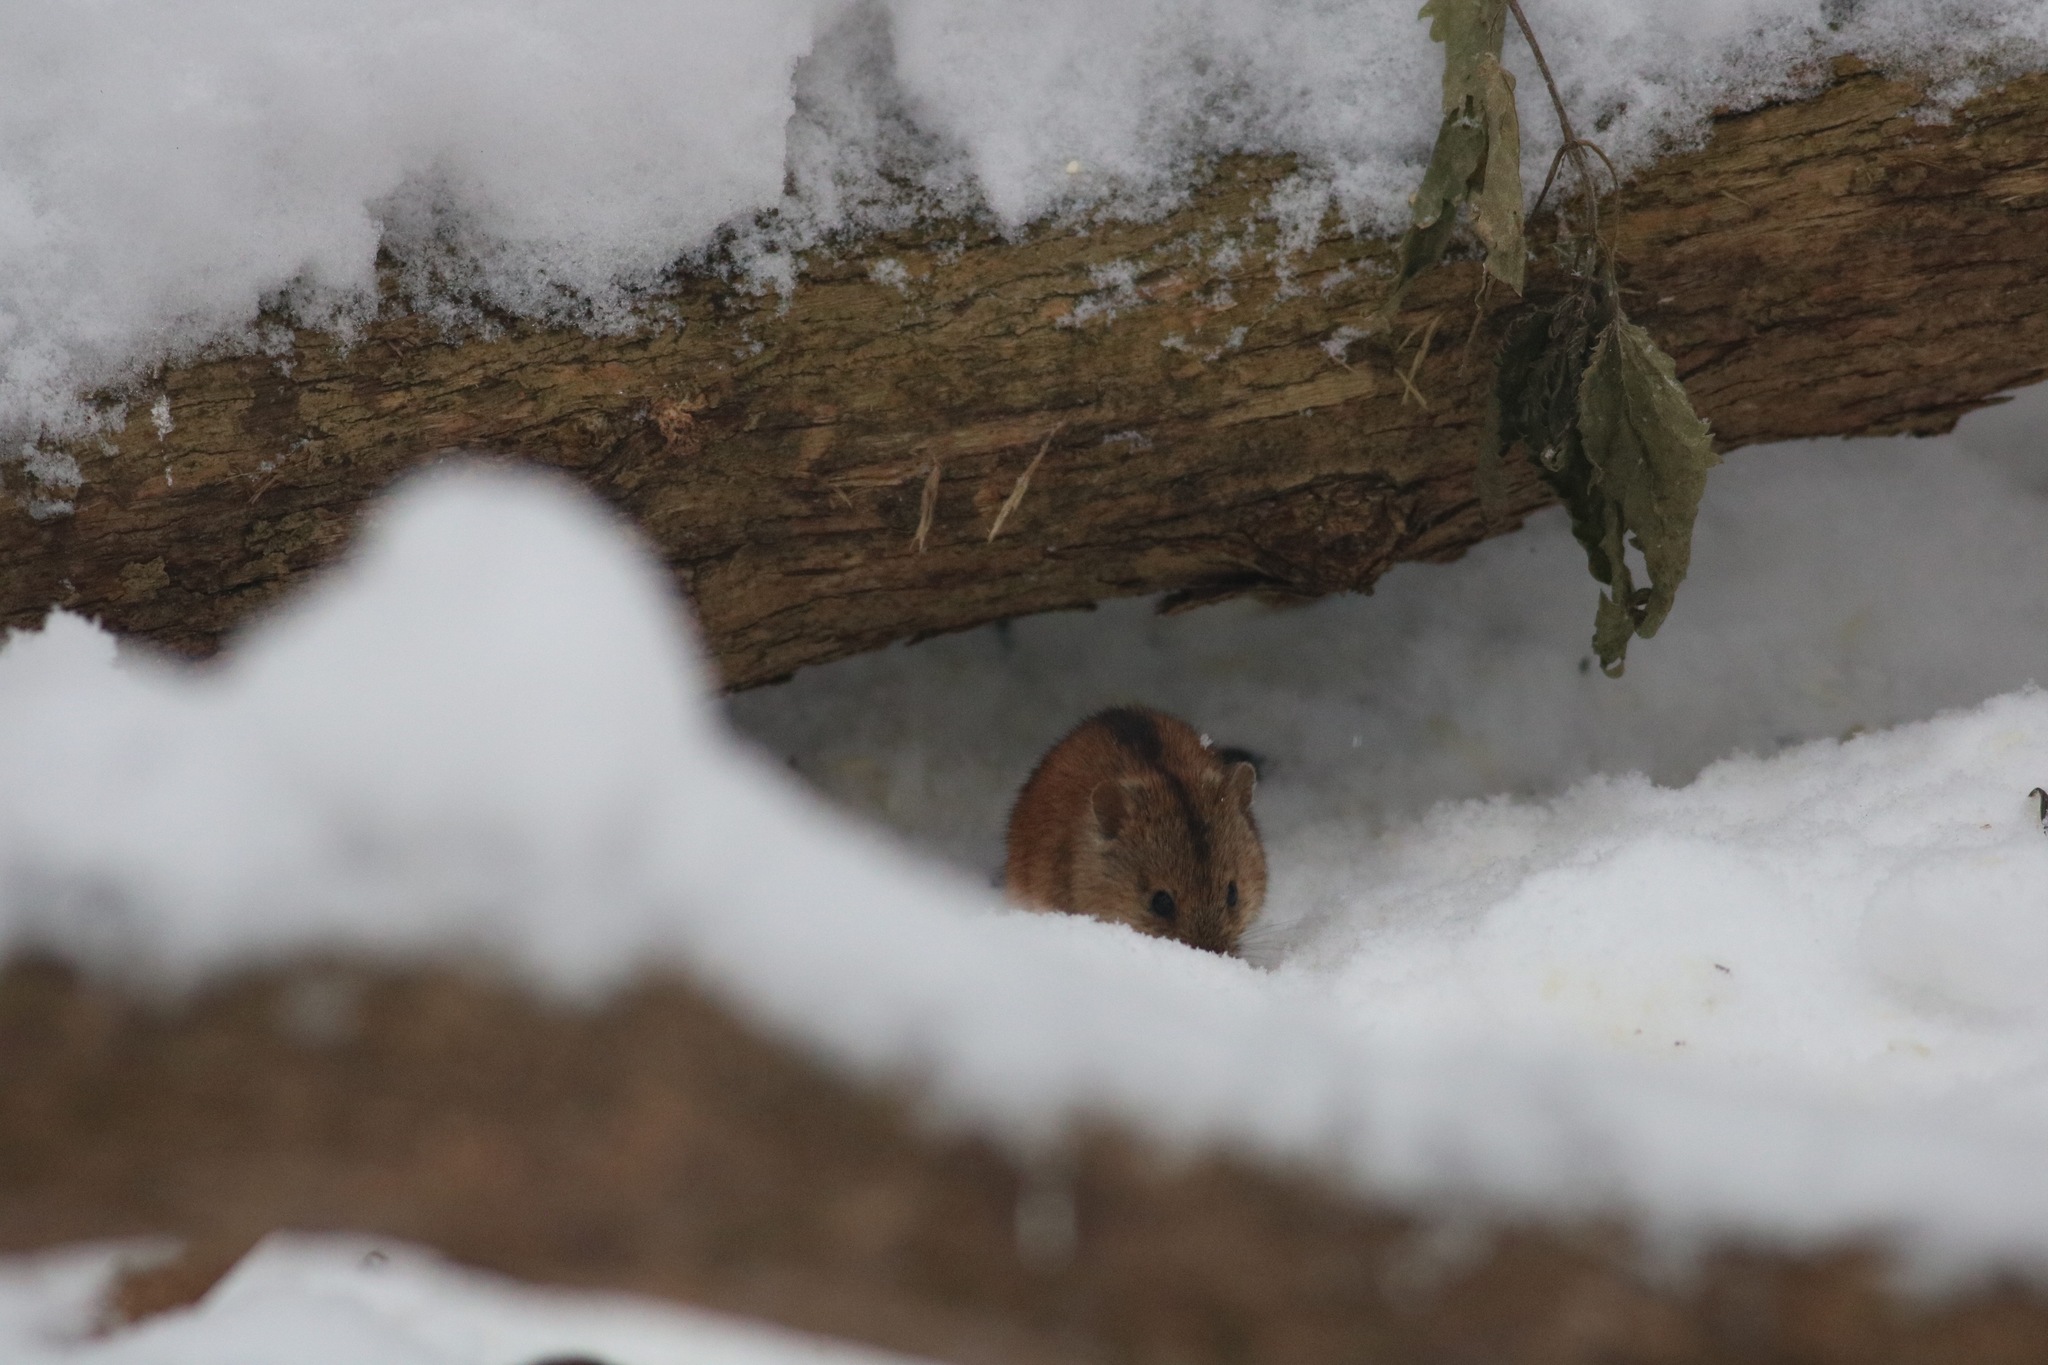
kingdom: Animalia
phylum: Chordata
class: Mammalia
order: Rodentia
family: Muridae
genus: Apodemus
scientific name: Apodemus agrarius
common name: Striped field mouse
